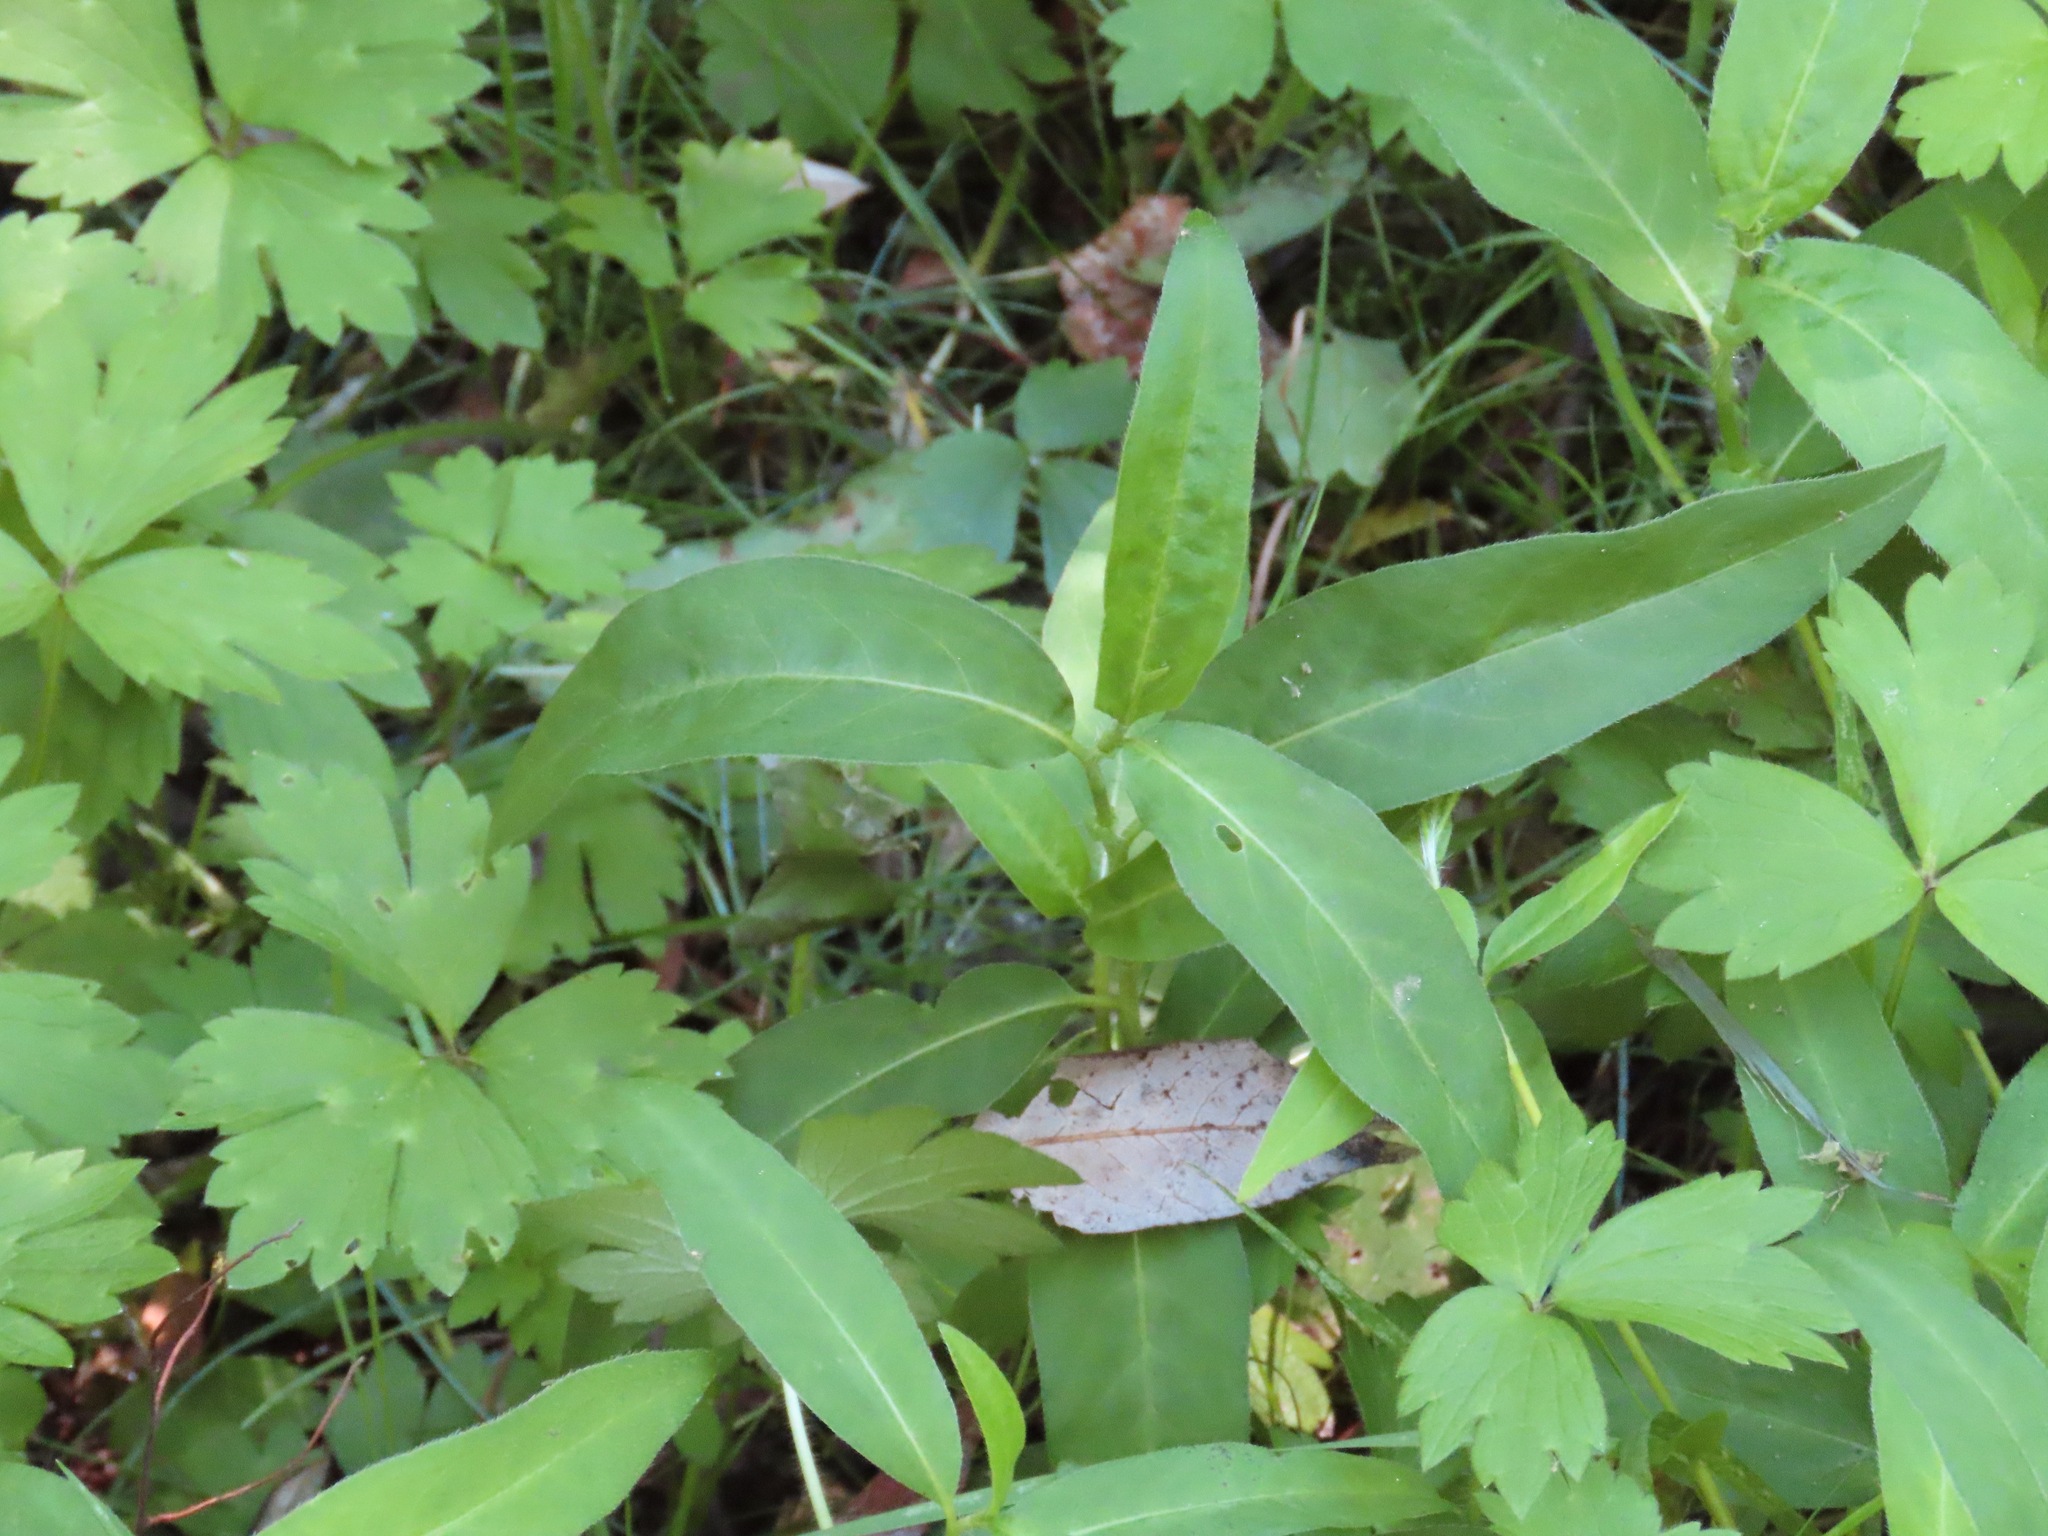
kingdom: Plantae
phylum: Tracheophyta
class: Magnoliopsida
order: Caryophyllales
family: Polygonaceae
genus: Persicaria
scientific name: Persicaria amphibia
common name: Amphibious bistort
